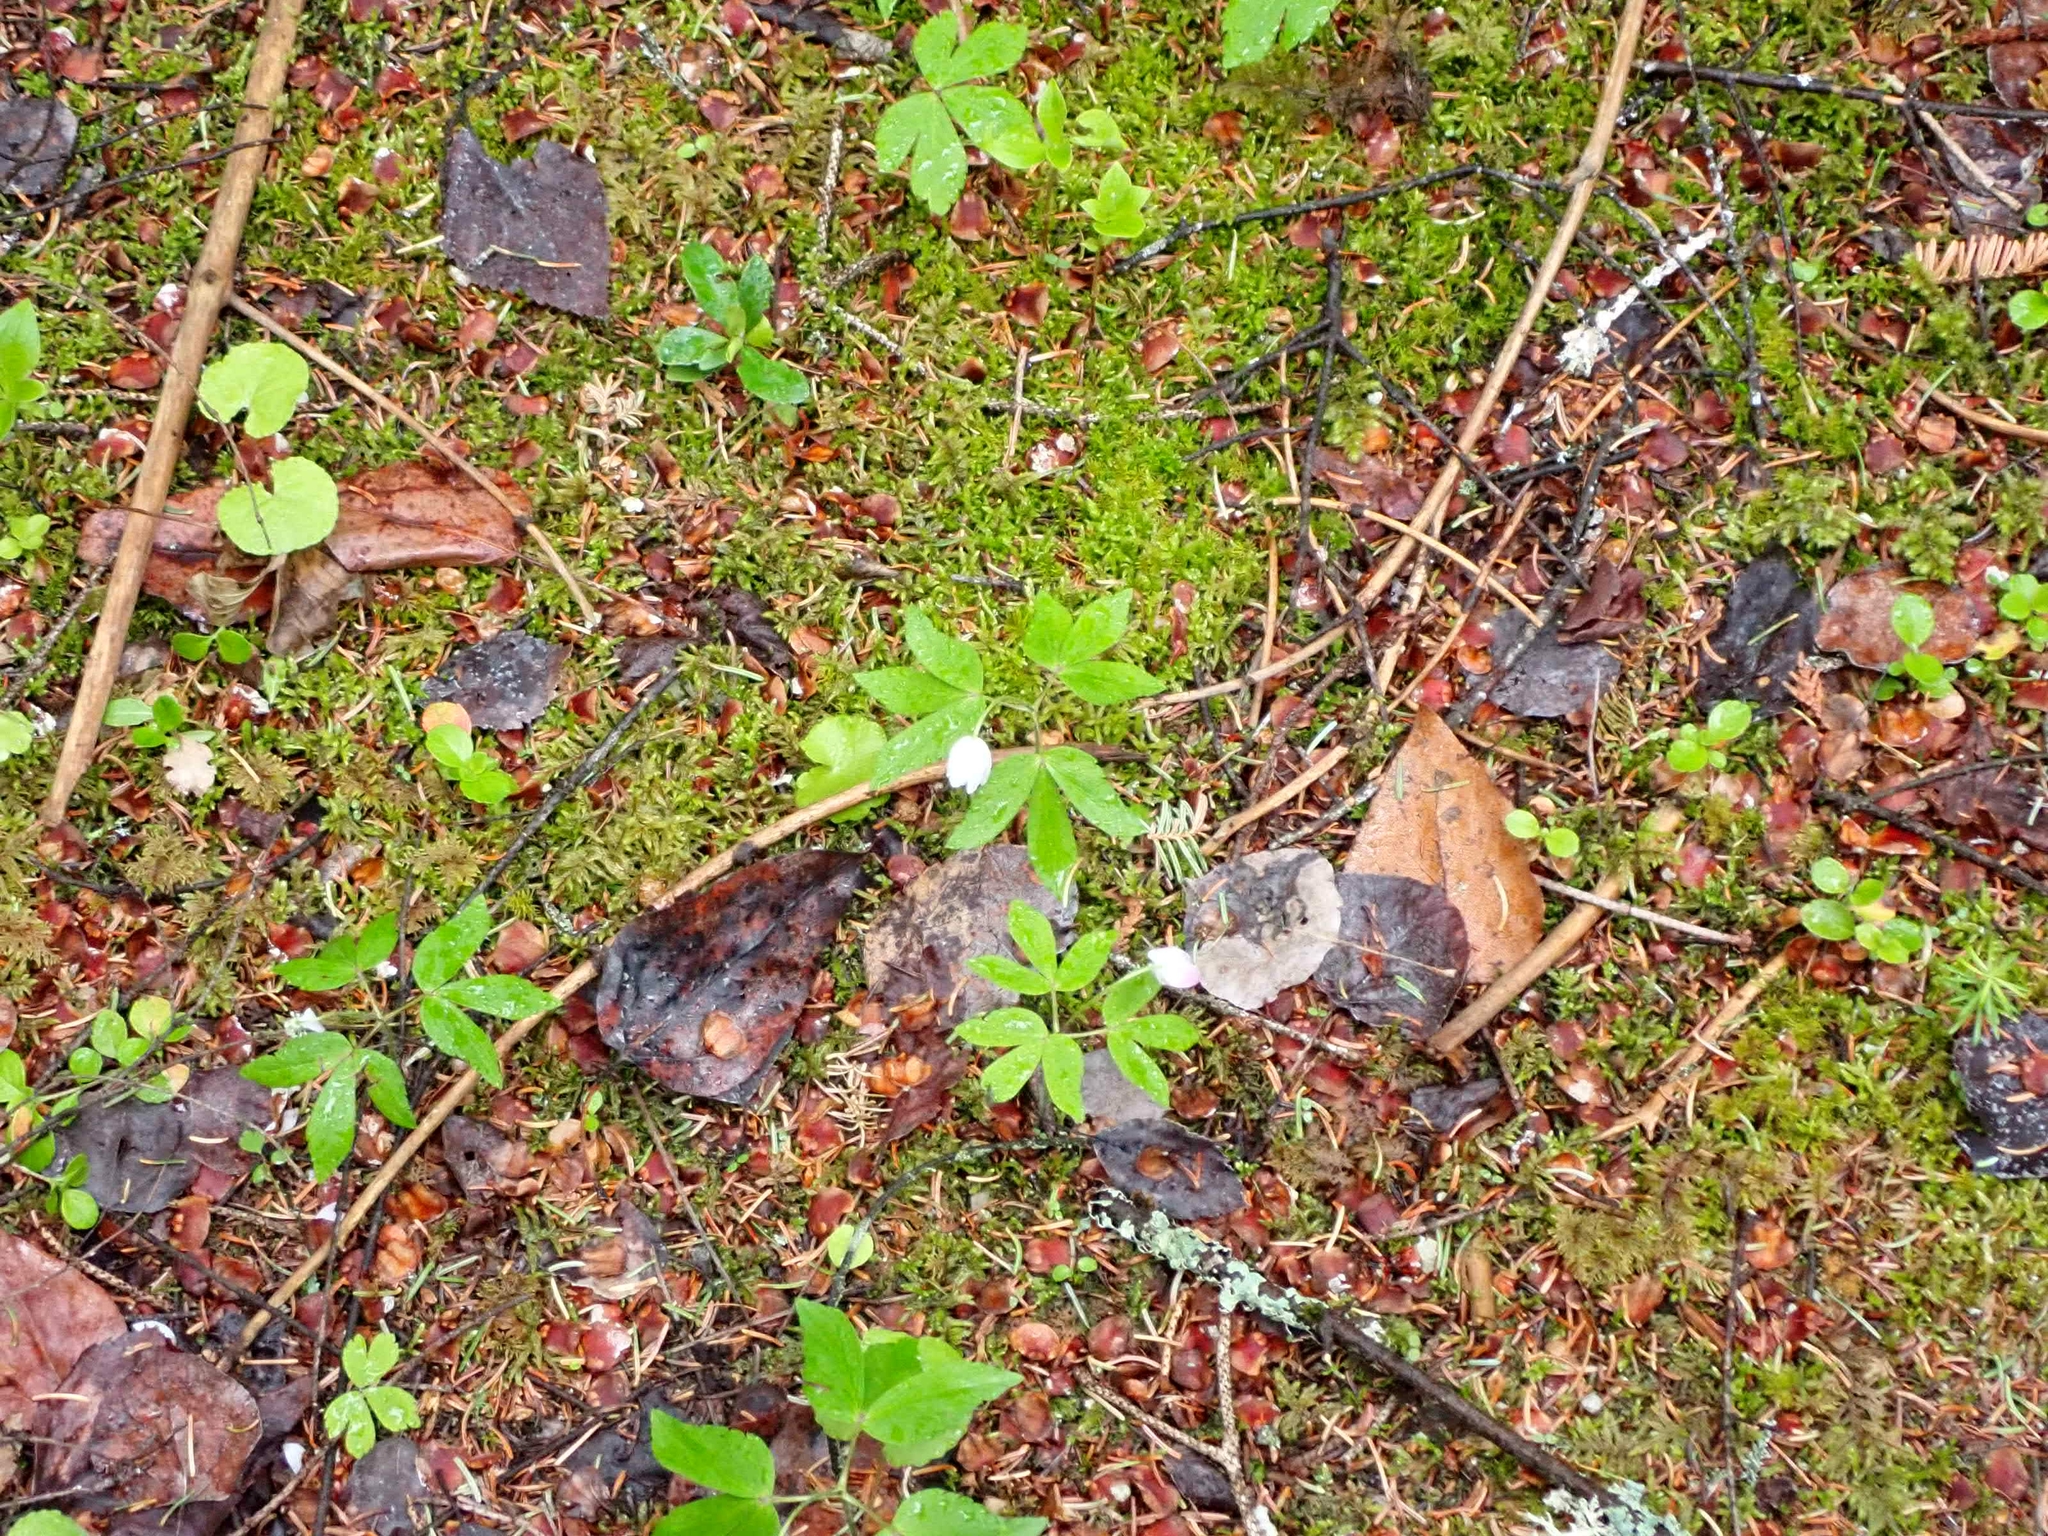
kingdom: Plantae
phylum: Tracheophyta
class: Magnoliopsida
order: Ranunculales
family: Ranunculaceae
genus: Anemone
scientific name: Anemone quinquefolia
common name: Wood anemone
